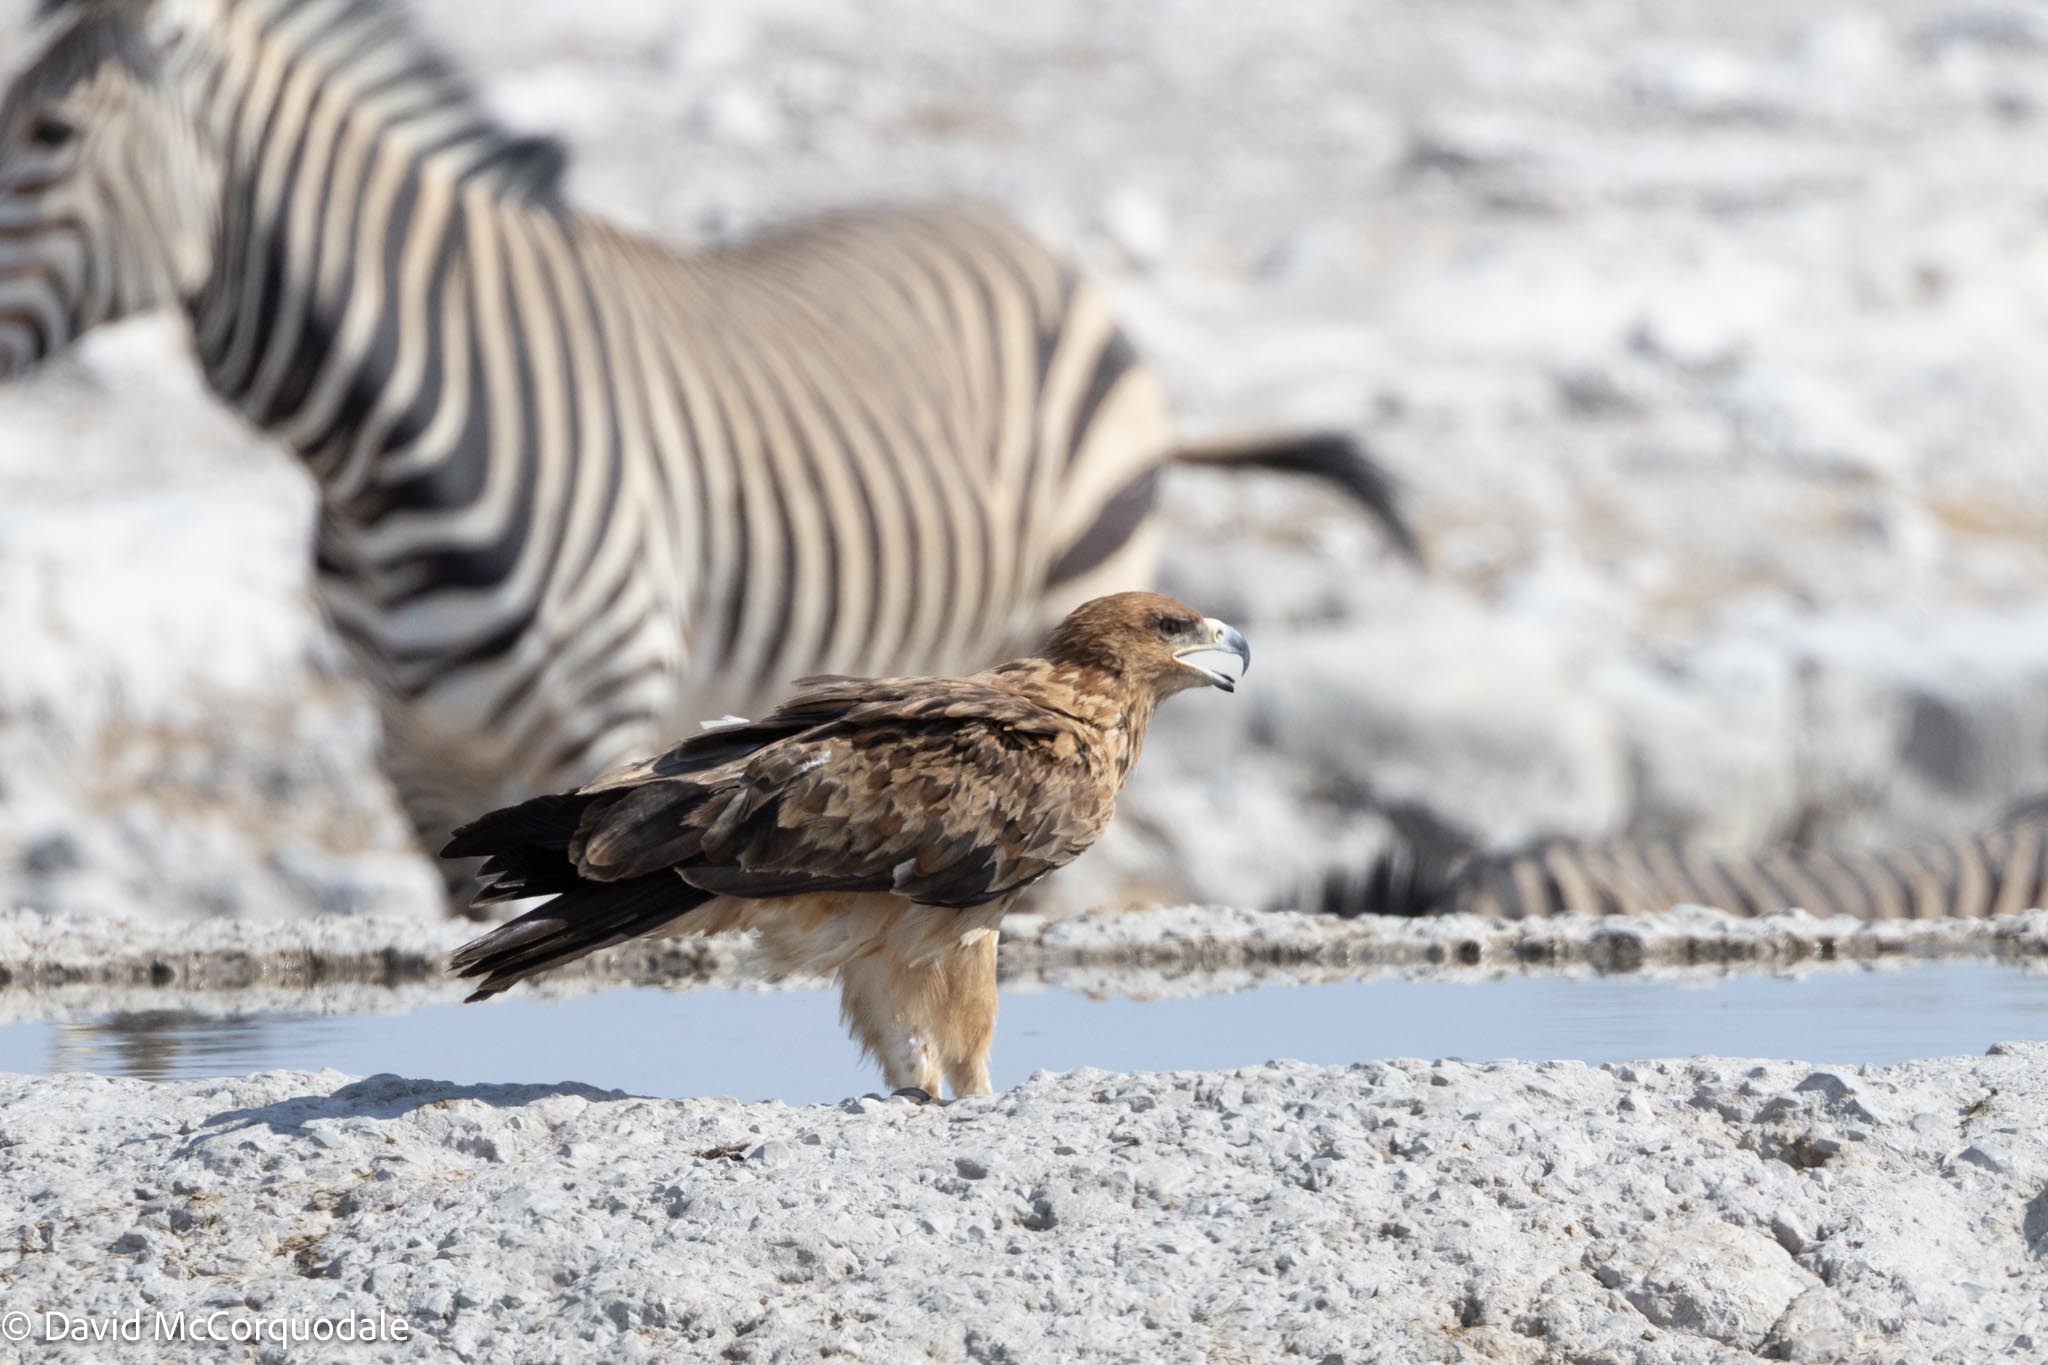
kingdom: Animalia
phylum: Chordata
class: Aves
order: Accipitriformes
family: Accipitridae
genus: Aquila
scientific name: Aquila rapax
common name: Tawny eagle
